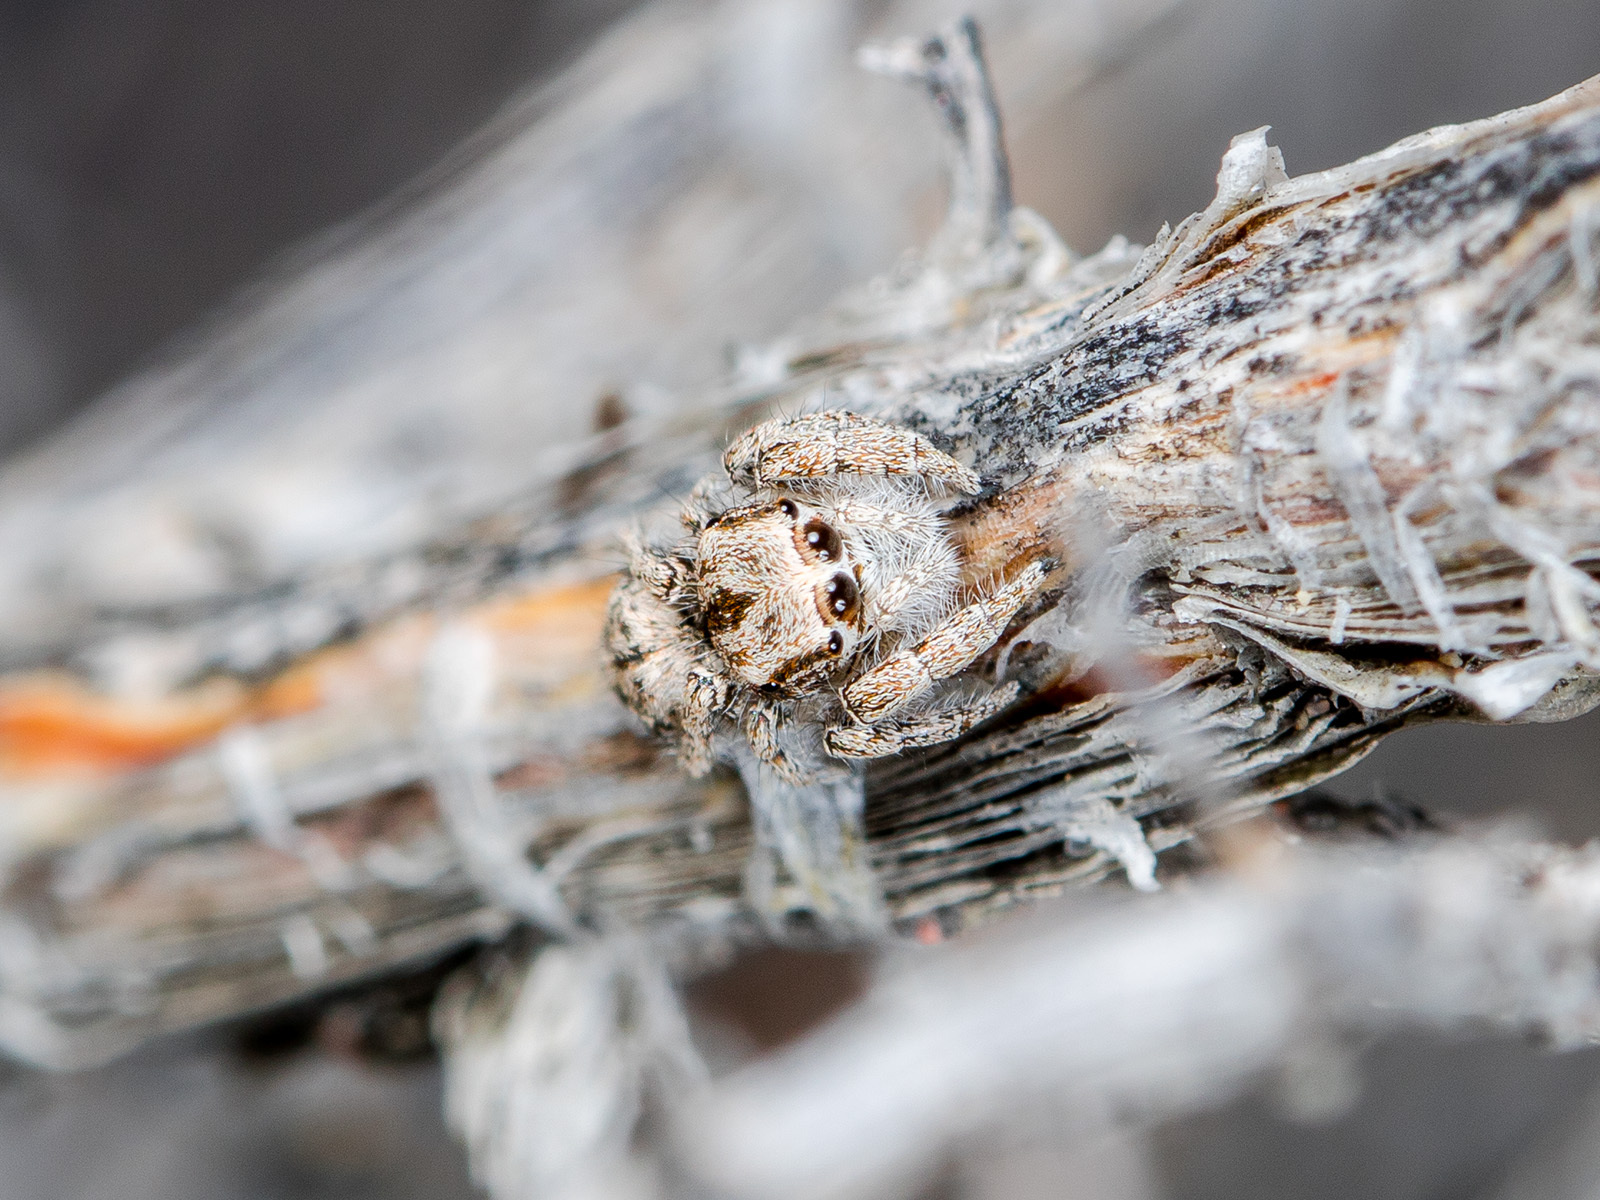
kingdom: Animalia
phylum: Arthropoda
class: Arachnida
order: Araneae
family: Salticidae
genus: Marusyllus
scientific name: Marusyllus aralicus
